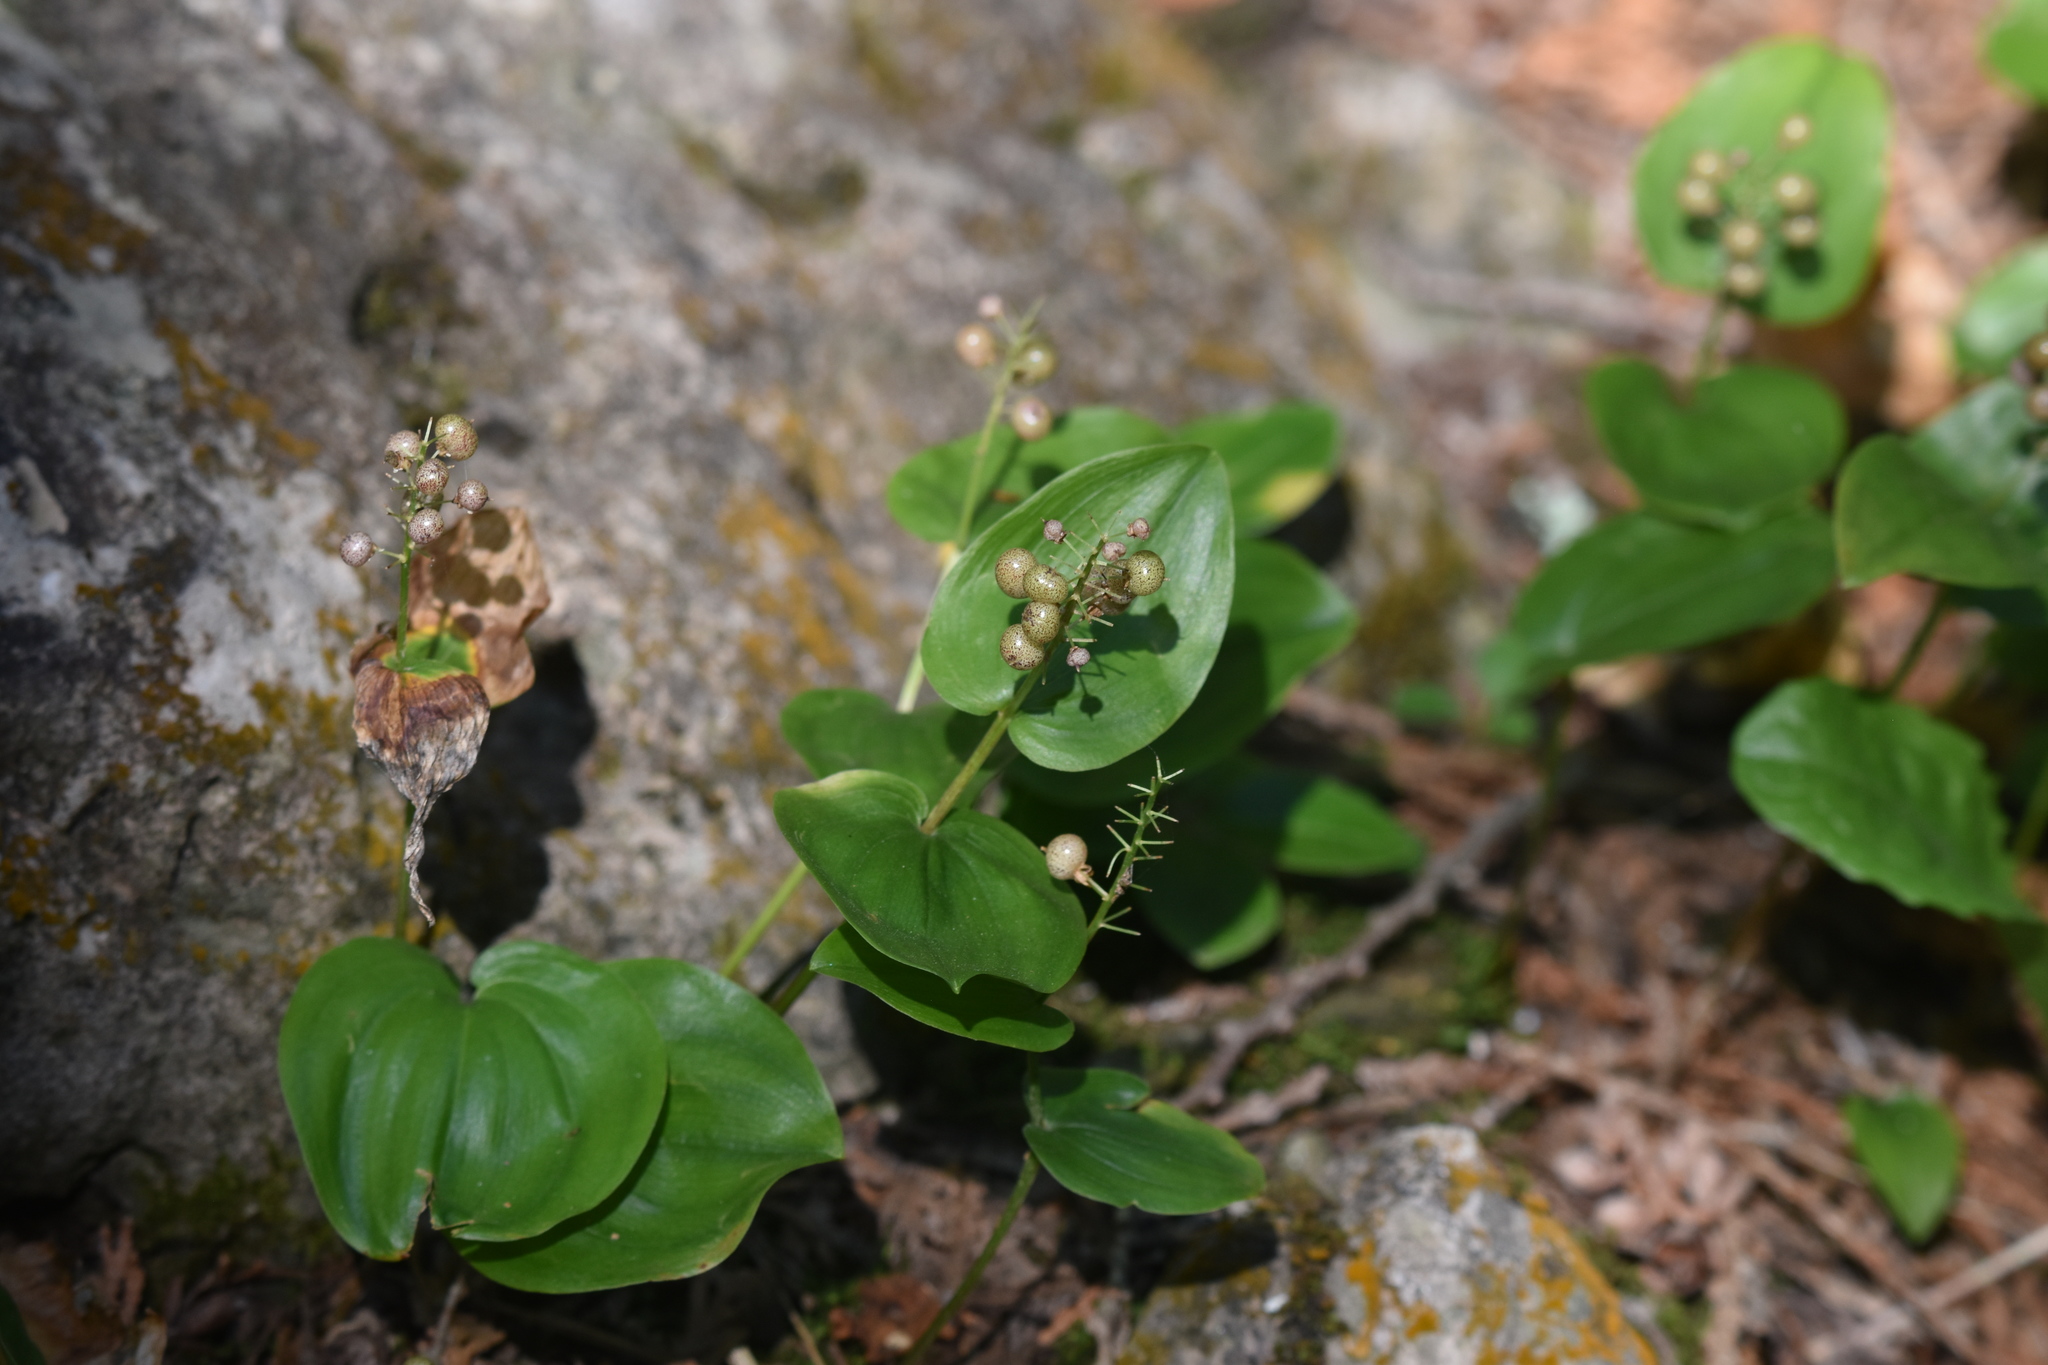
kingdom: Plantae
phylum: Tracheophyta
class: Liliopsida
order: Asparagales
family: Asparagaceae
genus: Maianthemum
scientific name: Maianthemum canadense
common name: False lily-of-the-valley
